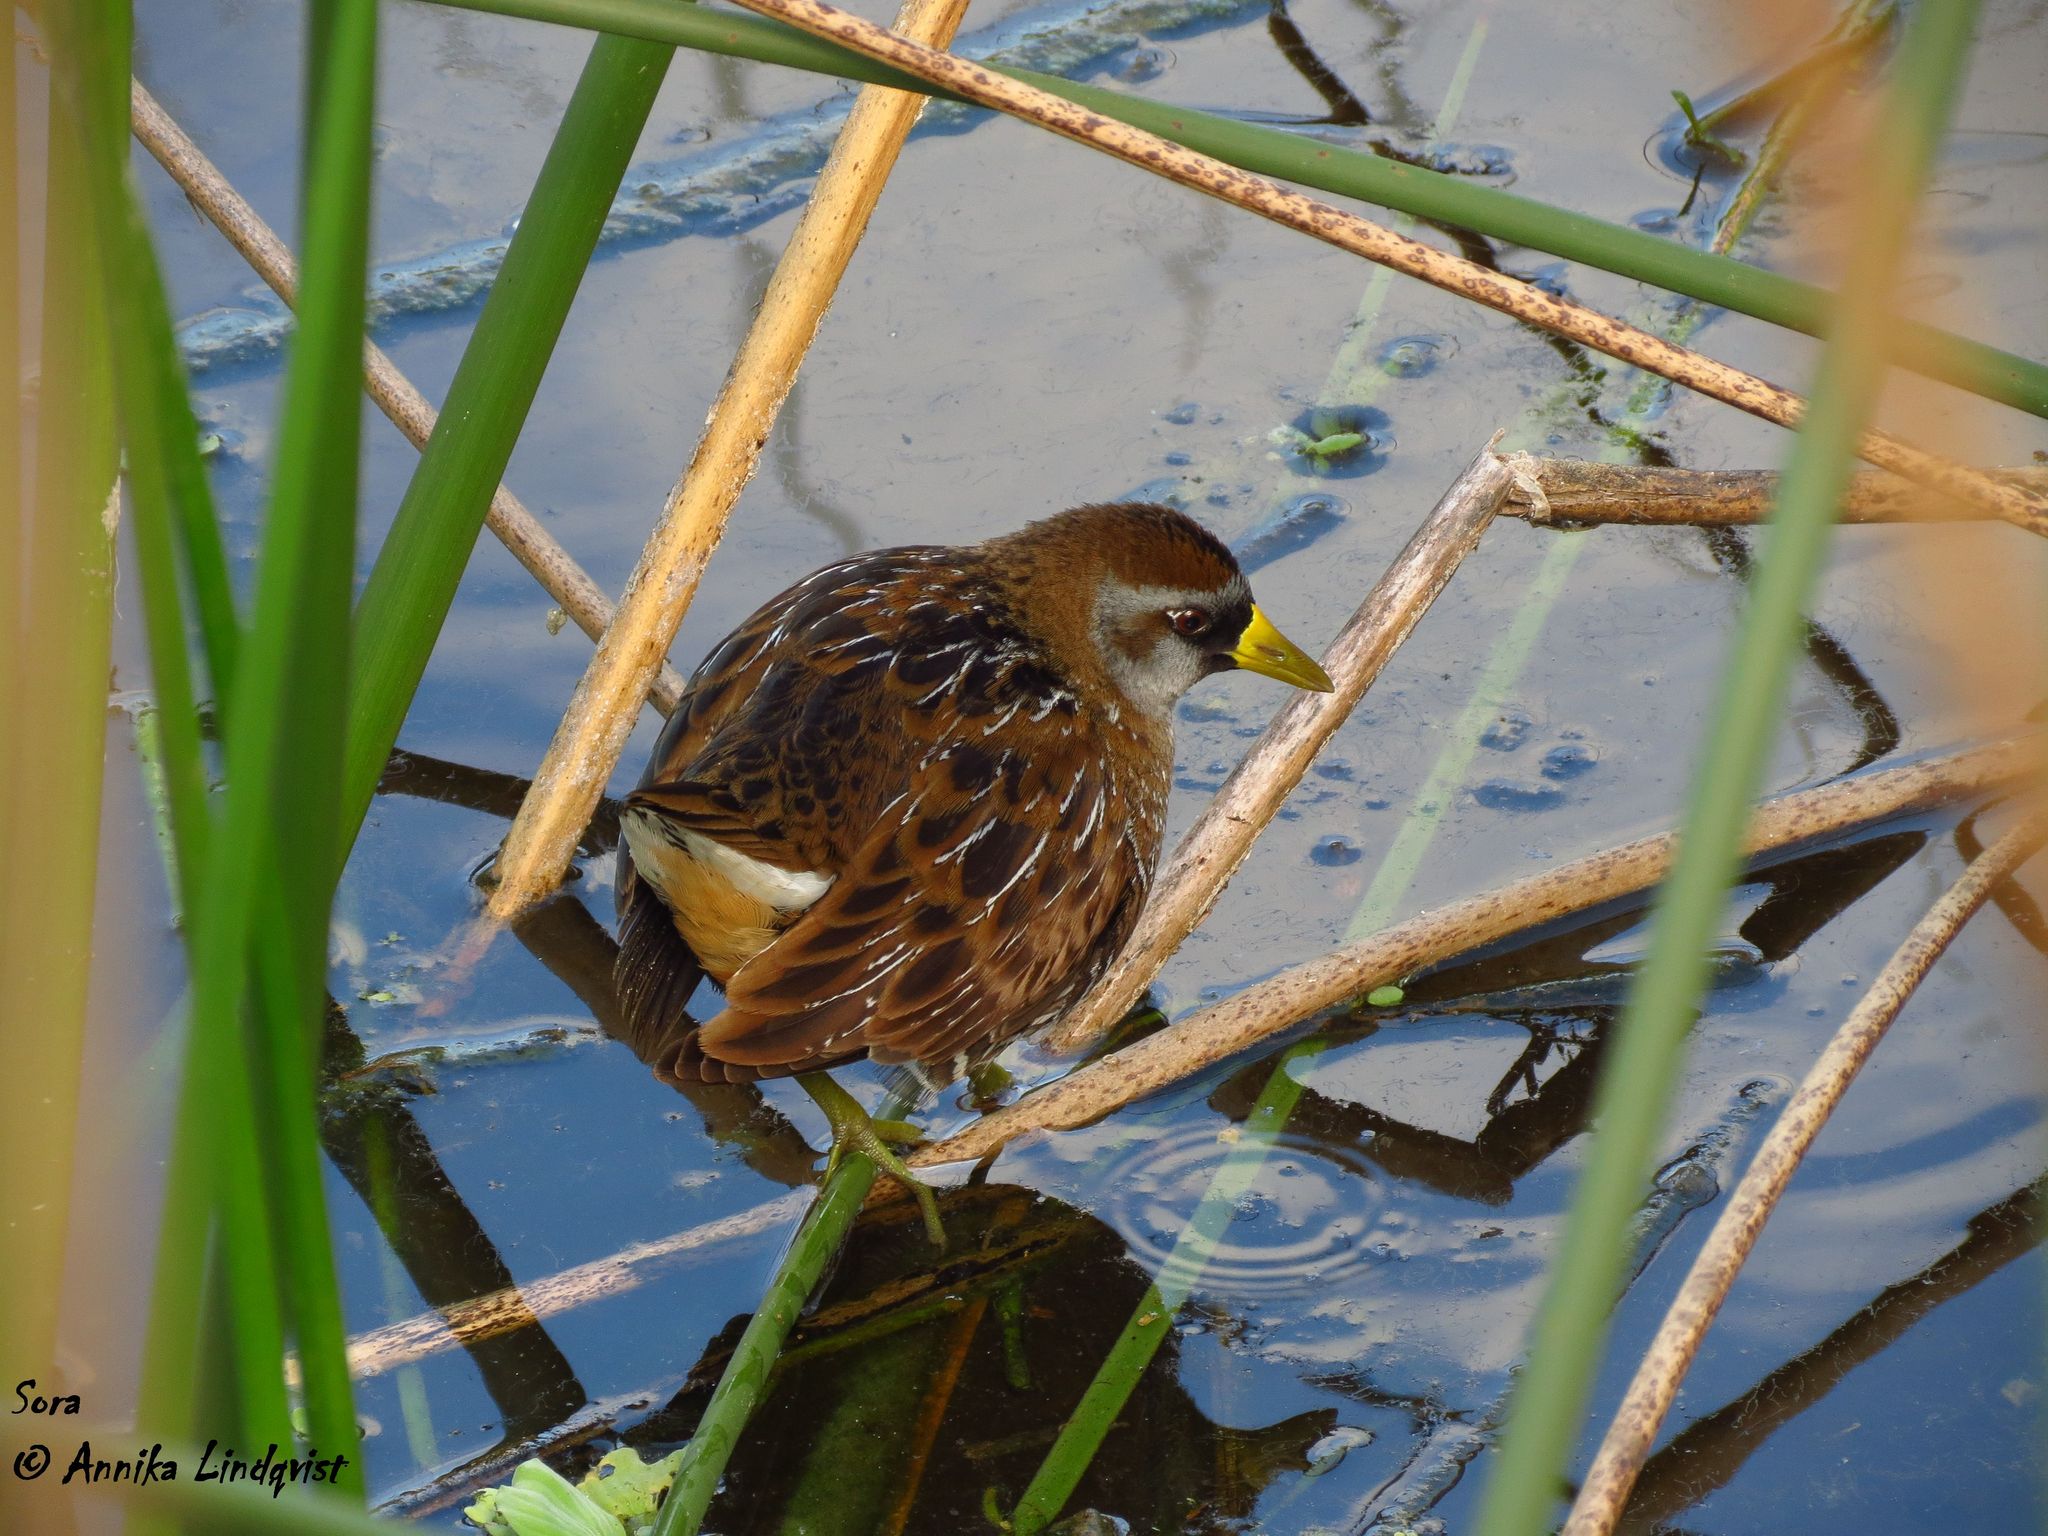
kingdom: Animalia
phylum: Chordata
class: Aves
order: Gruiformes
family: Rallidae
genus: Porzana
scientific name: Porzana carolina
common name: Sora
